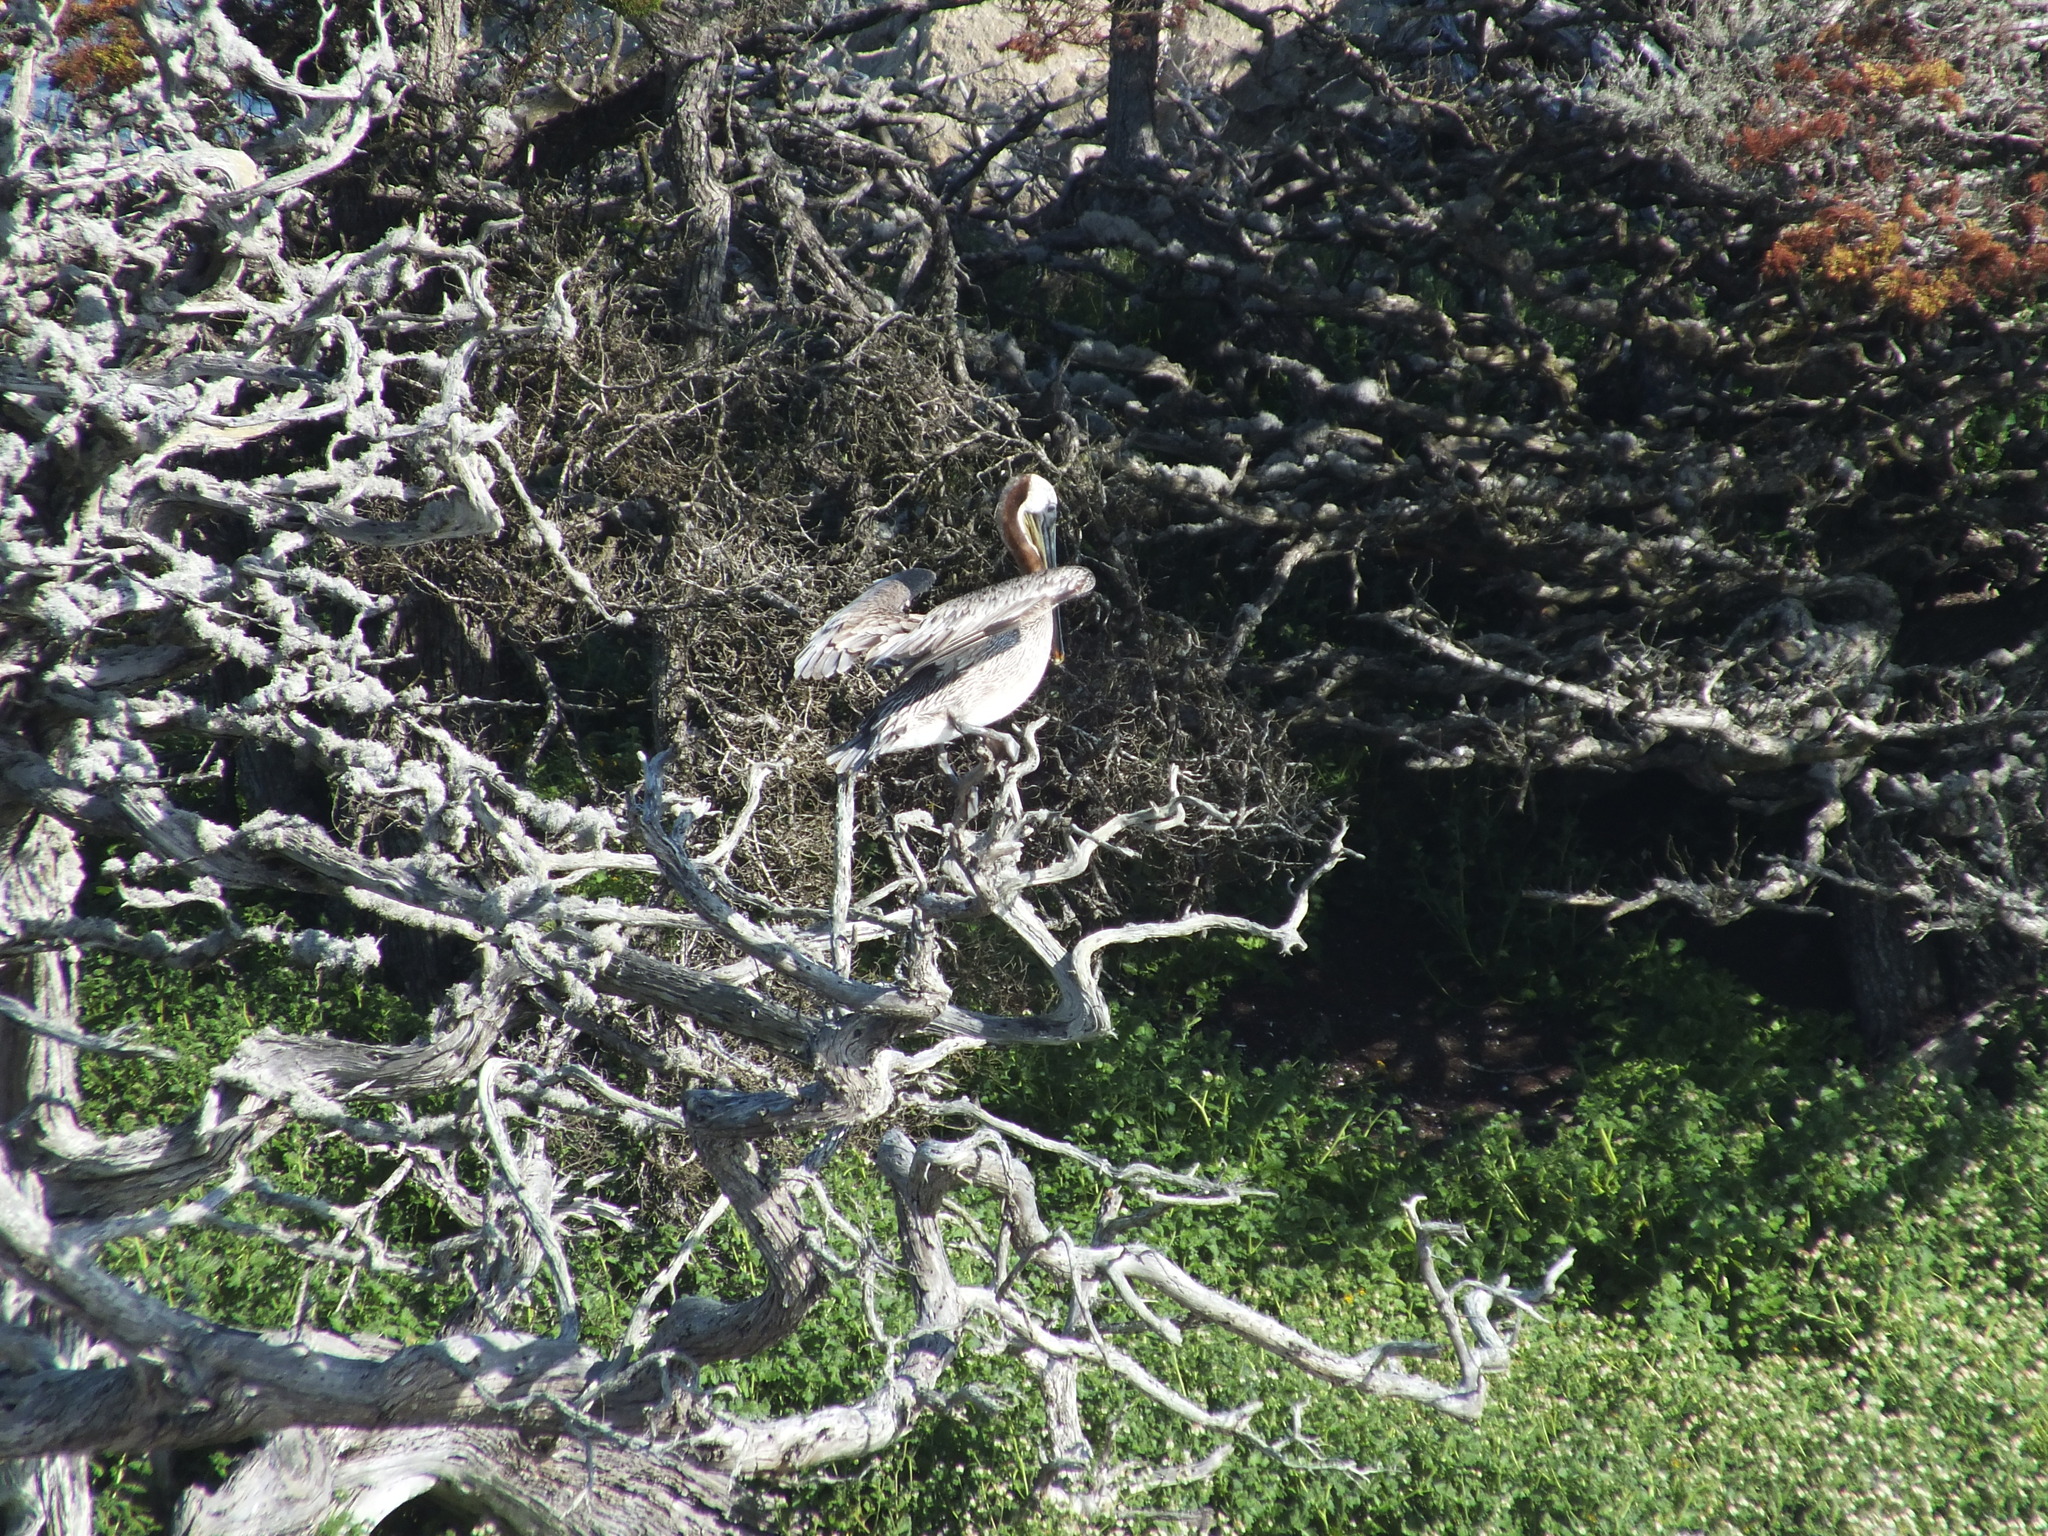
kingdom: Animalia
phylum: Chordata
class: Aves
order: Pelecaniformes
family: Pelecanidae
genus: Pelecanus
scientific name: Pelecanus occidentalis
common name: Brown pelican
